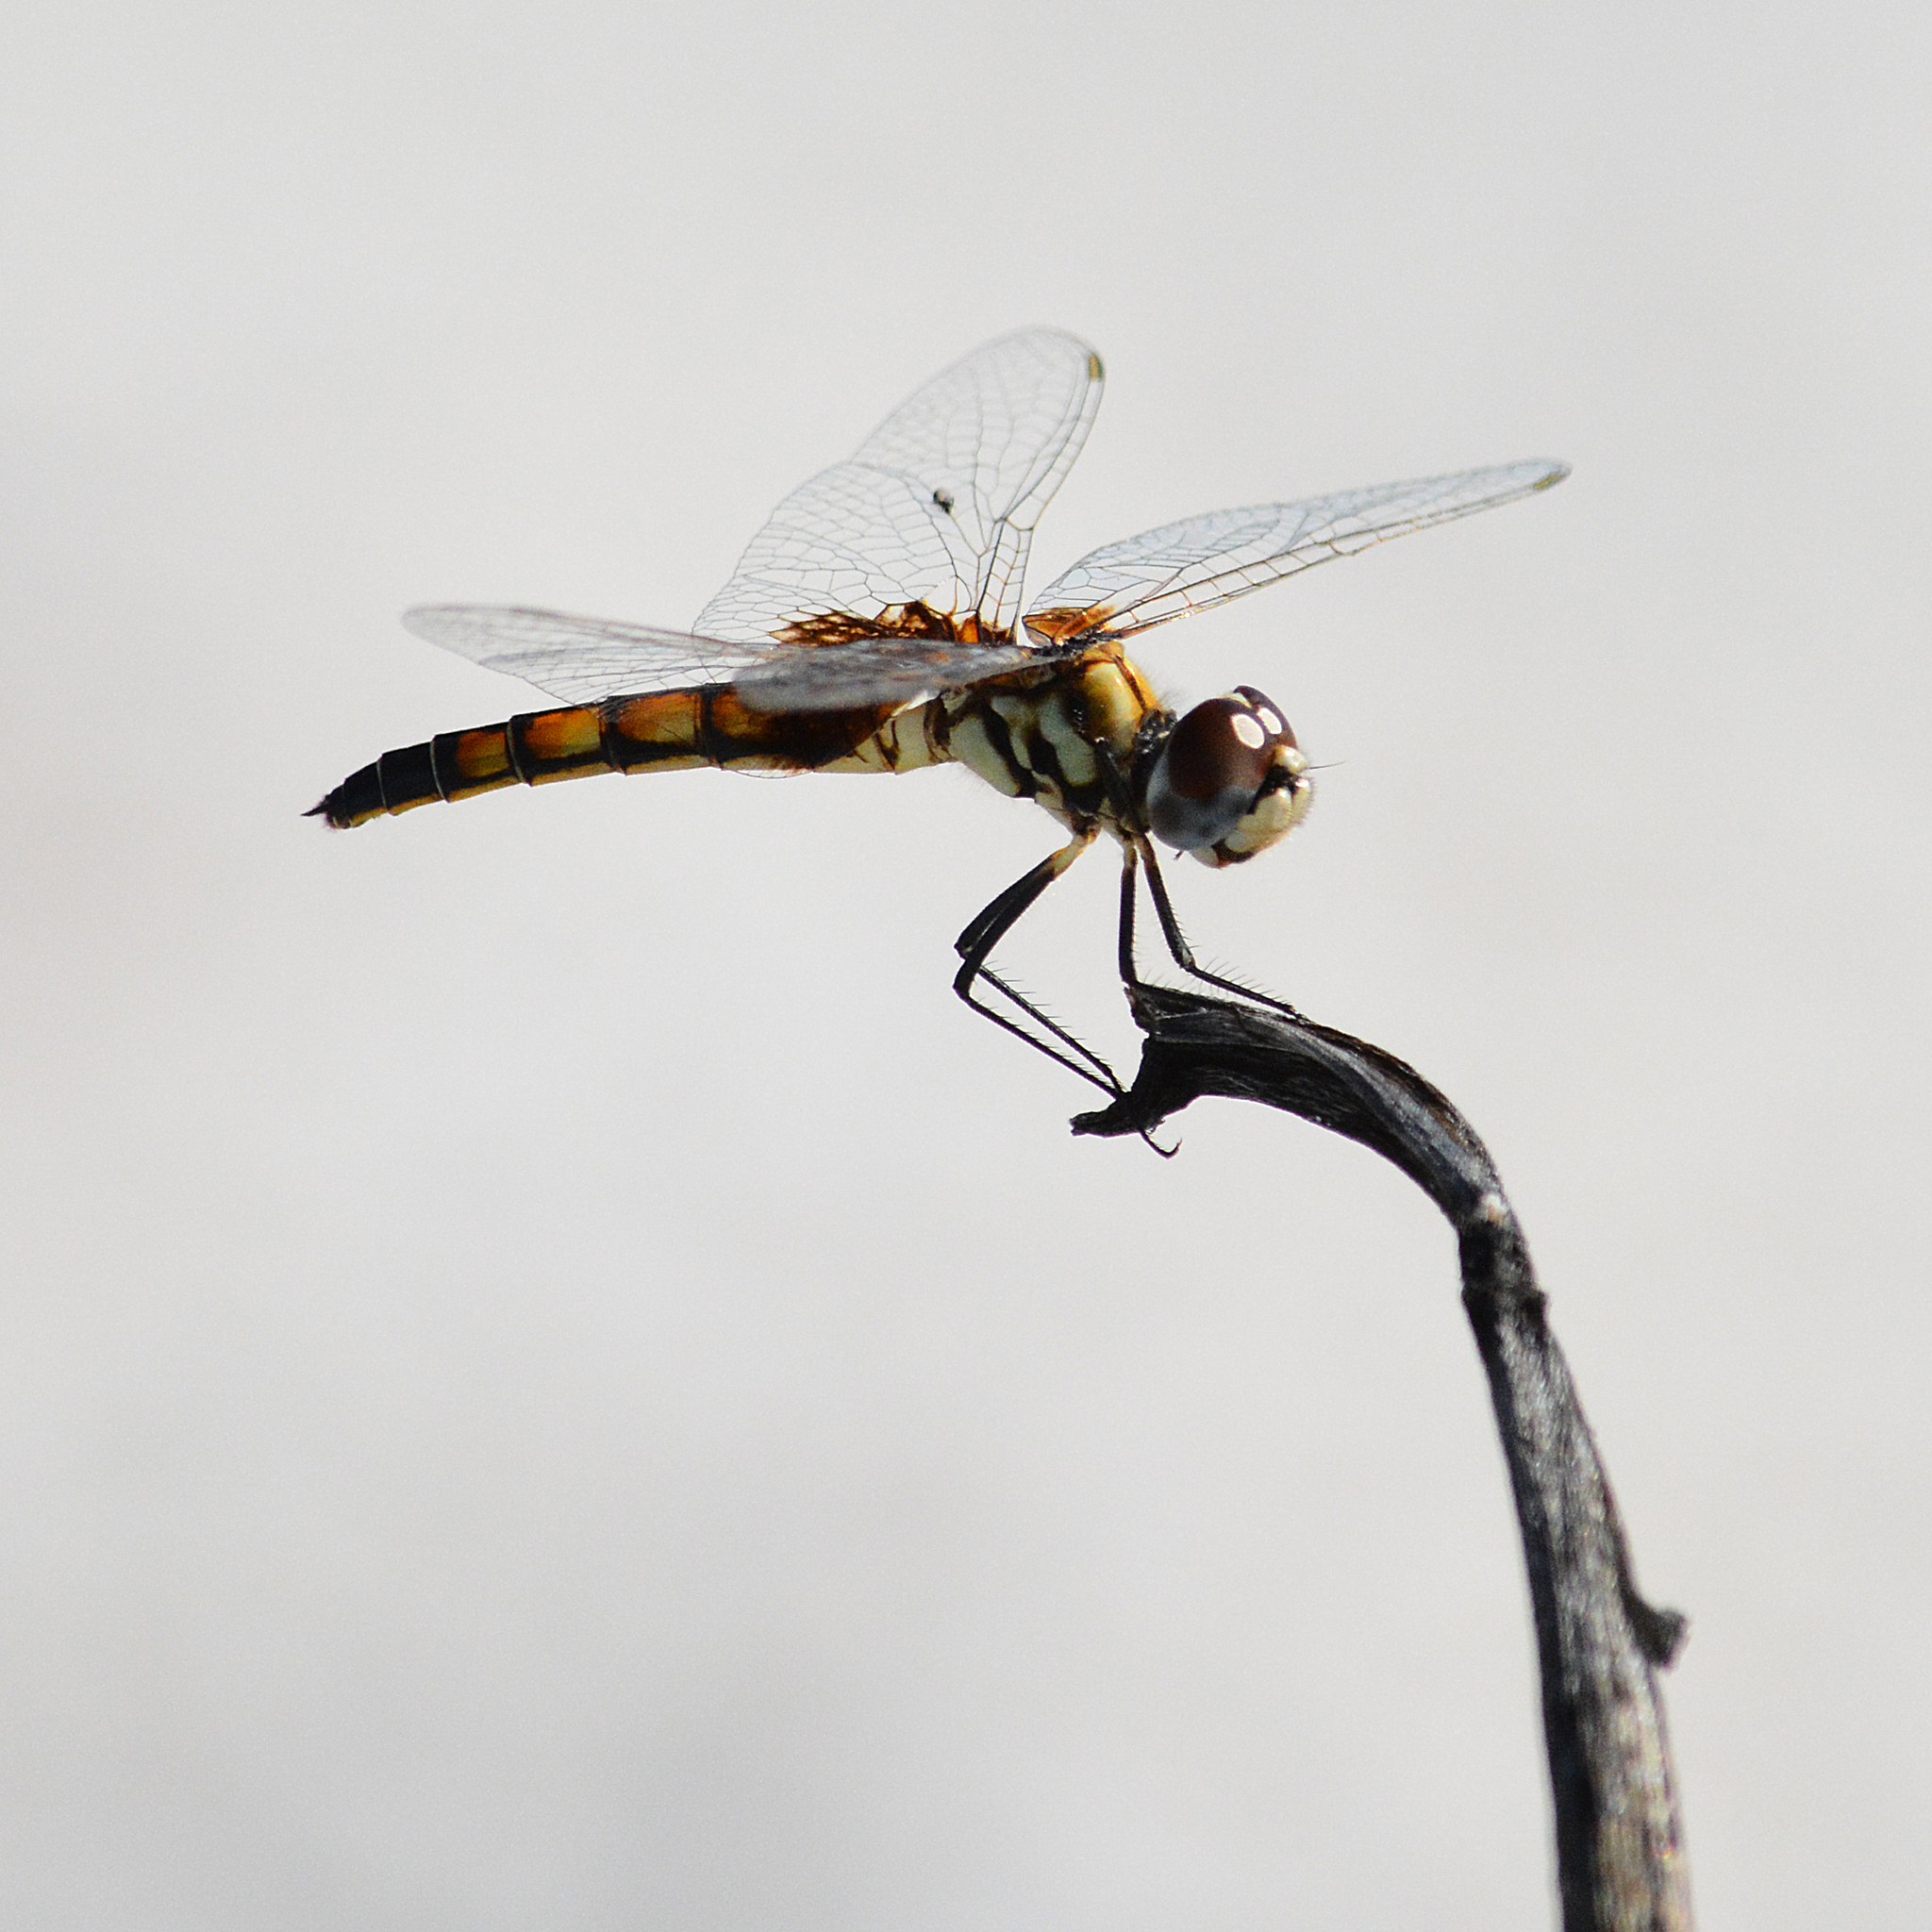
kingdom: Animalia
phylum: Arthropoda
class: Insecta
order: Odonata
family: Libellulidae
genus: Macrodiplax
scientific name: Macrodiplax balteata
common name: Marl pennant
